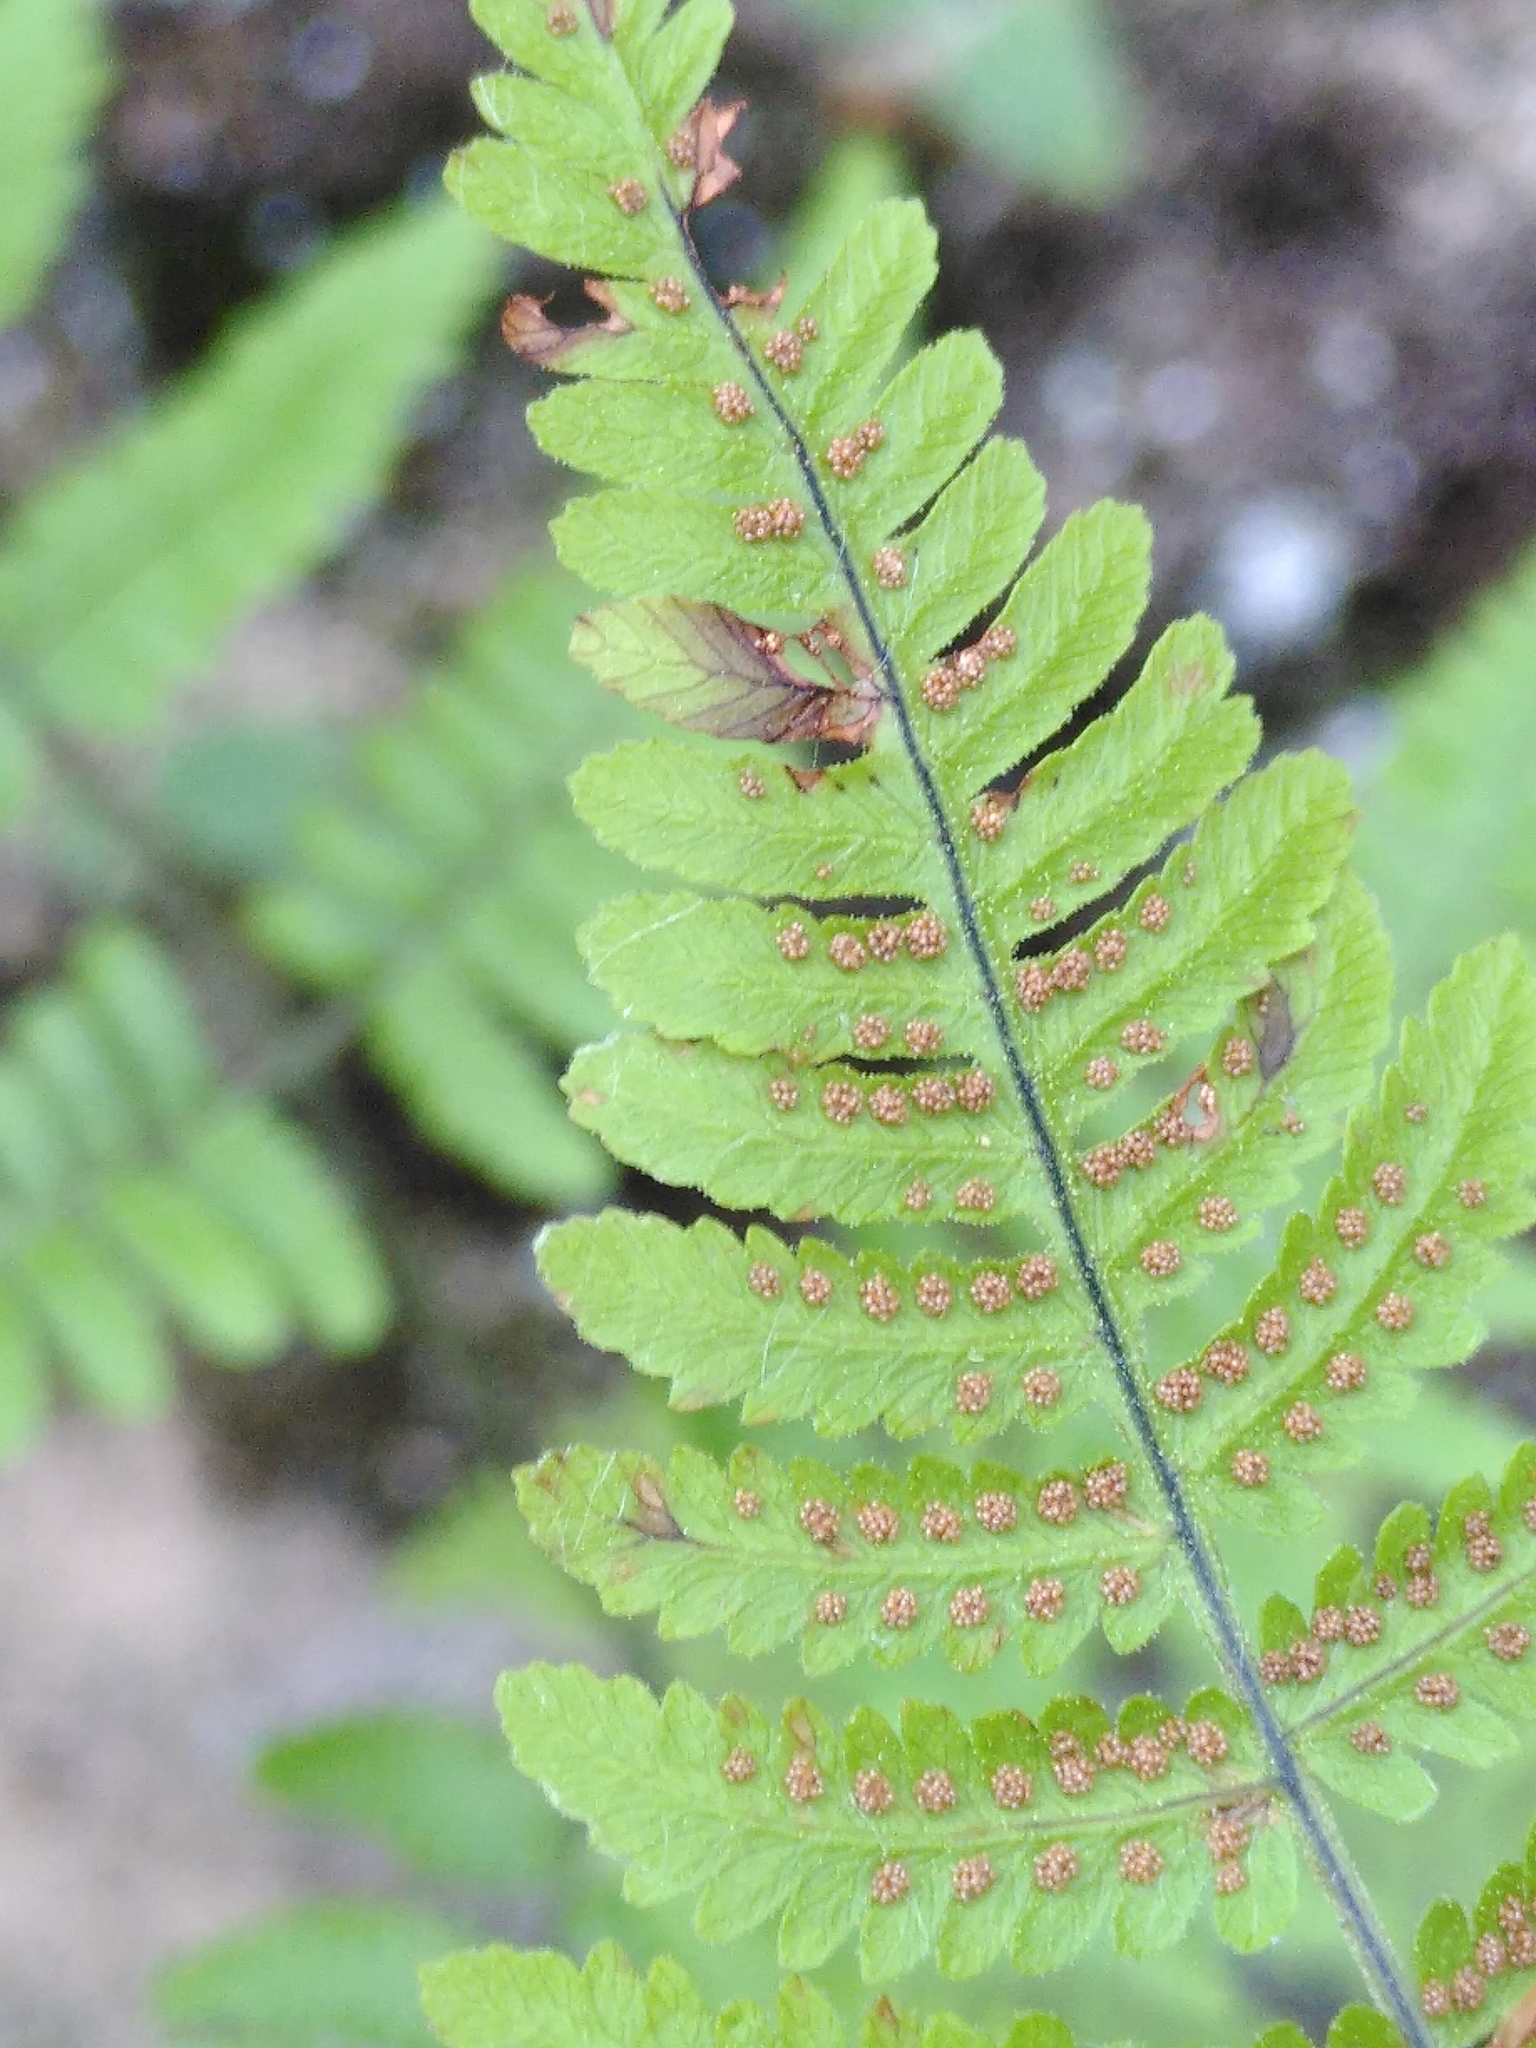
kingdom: Plantae
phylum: Tracheophyta
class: Polypodiopsida
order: Polypodiales
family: Cystopteridaceae
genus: Gymnocarpium
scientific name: Gymnocarpium robertianum
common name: Limestone fern
